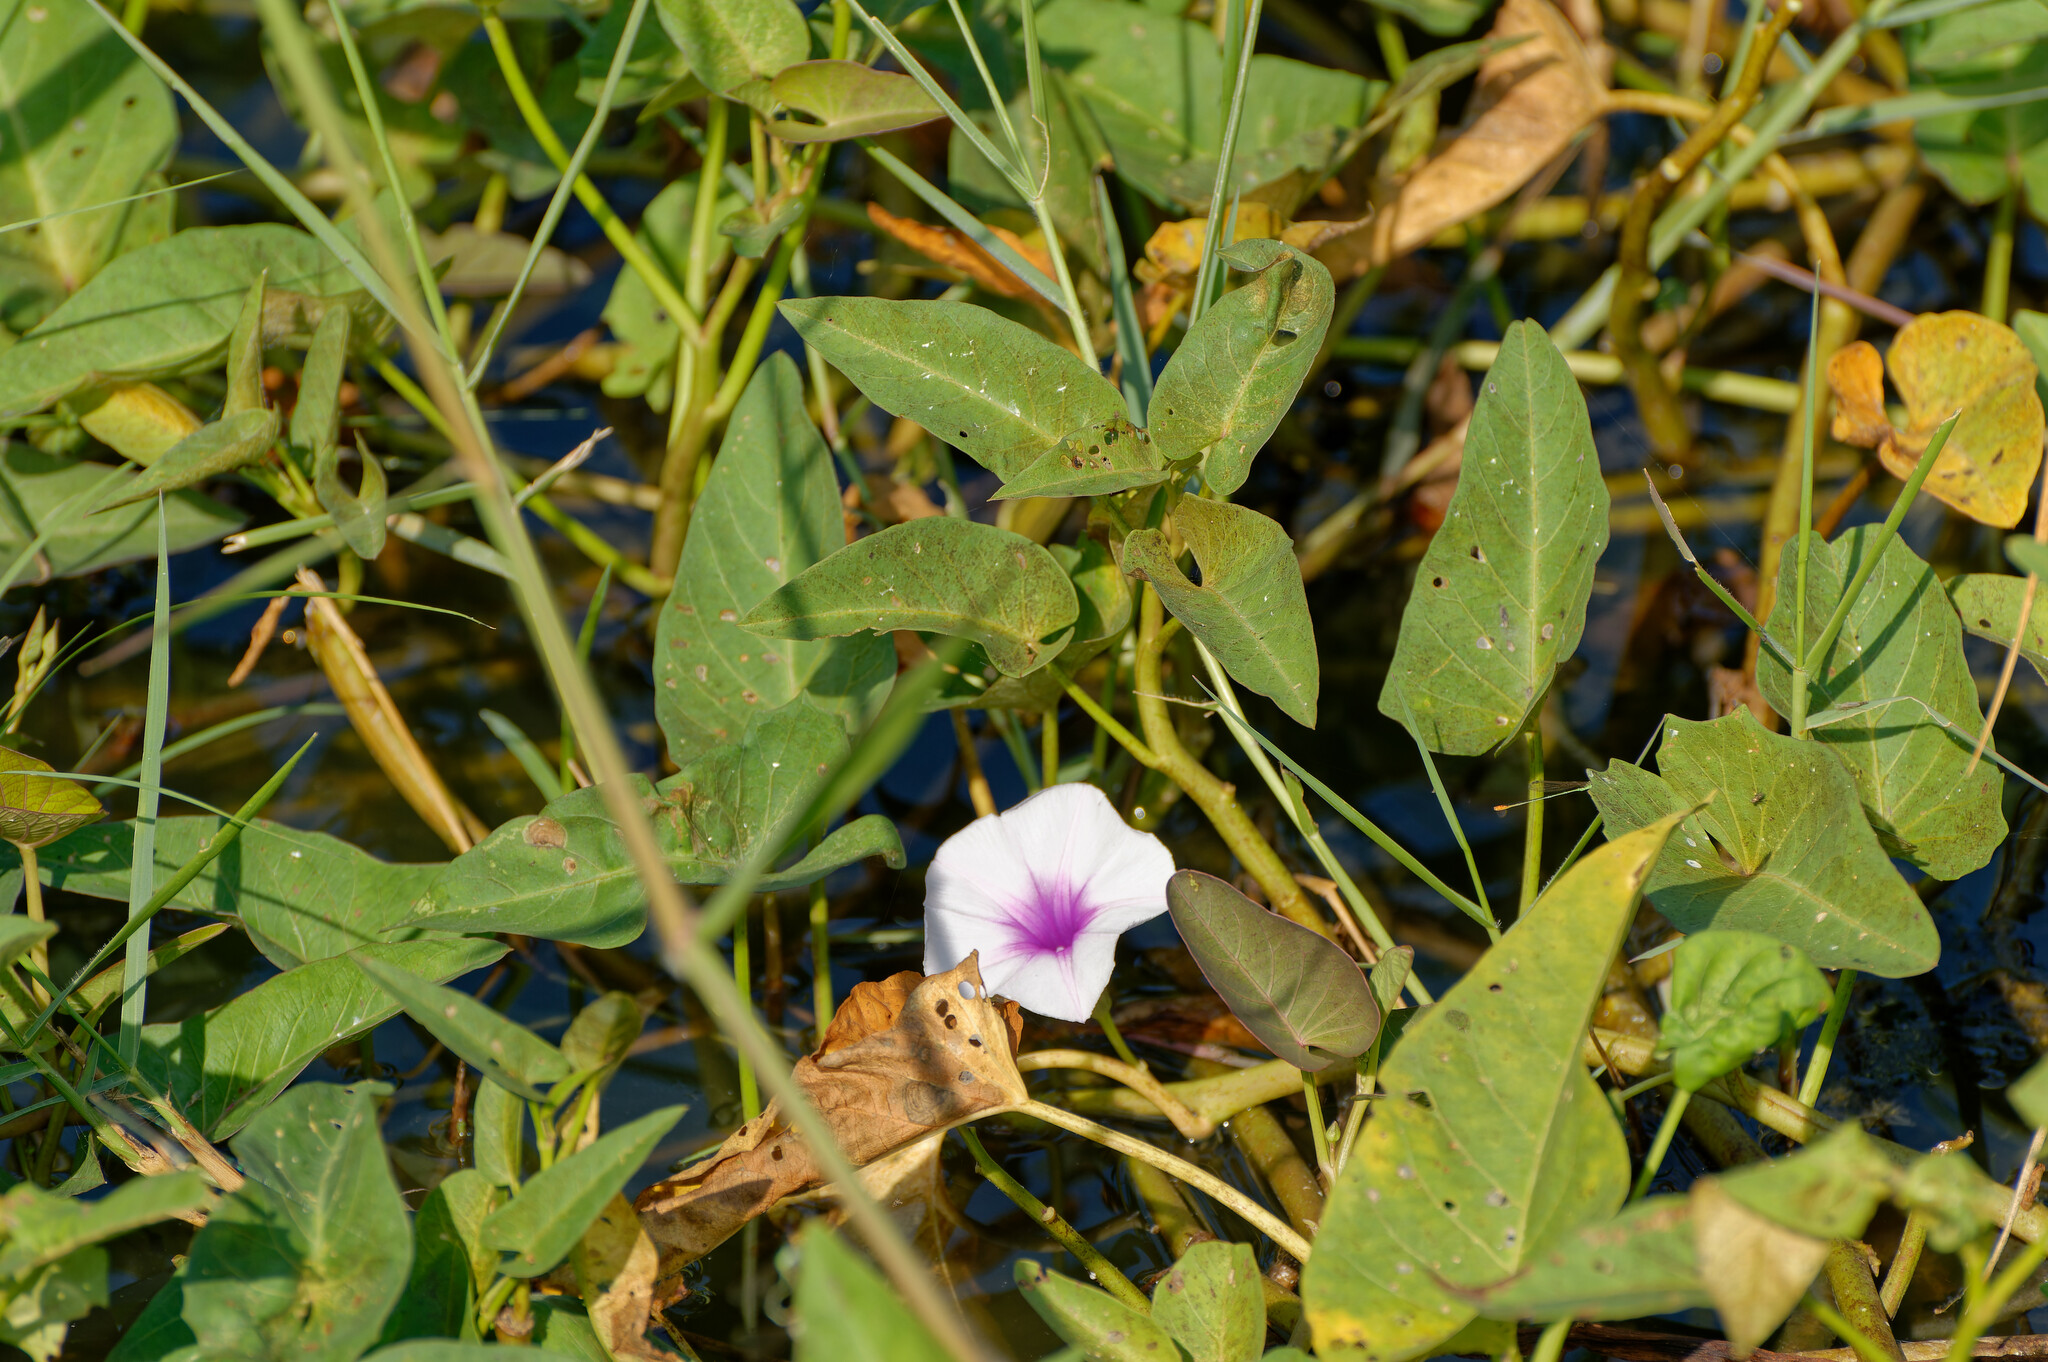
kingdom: Plantae
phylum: Tracheophyta
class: Magnoliopsida
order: Solanales
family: Convolvulaceae
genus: Ipomoea
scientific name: Ipomoea aquatica
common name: Swamp morning-glory
